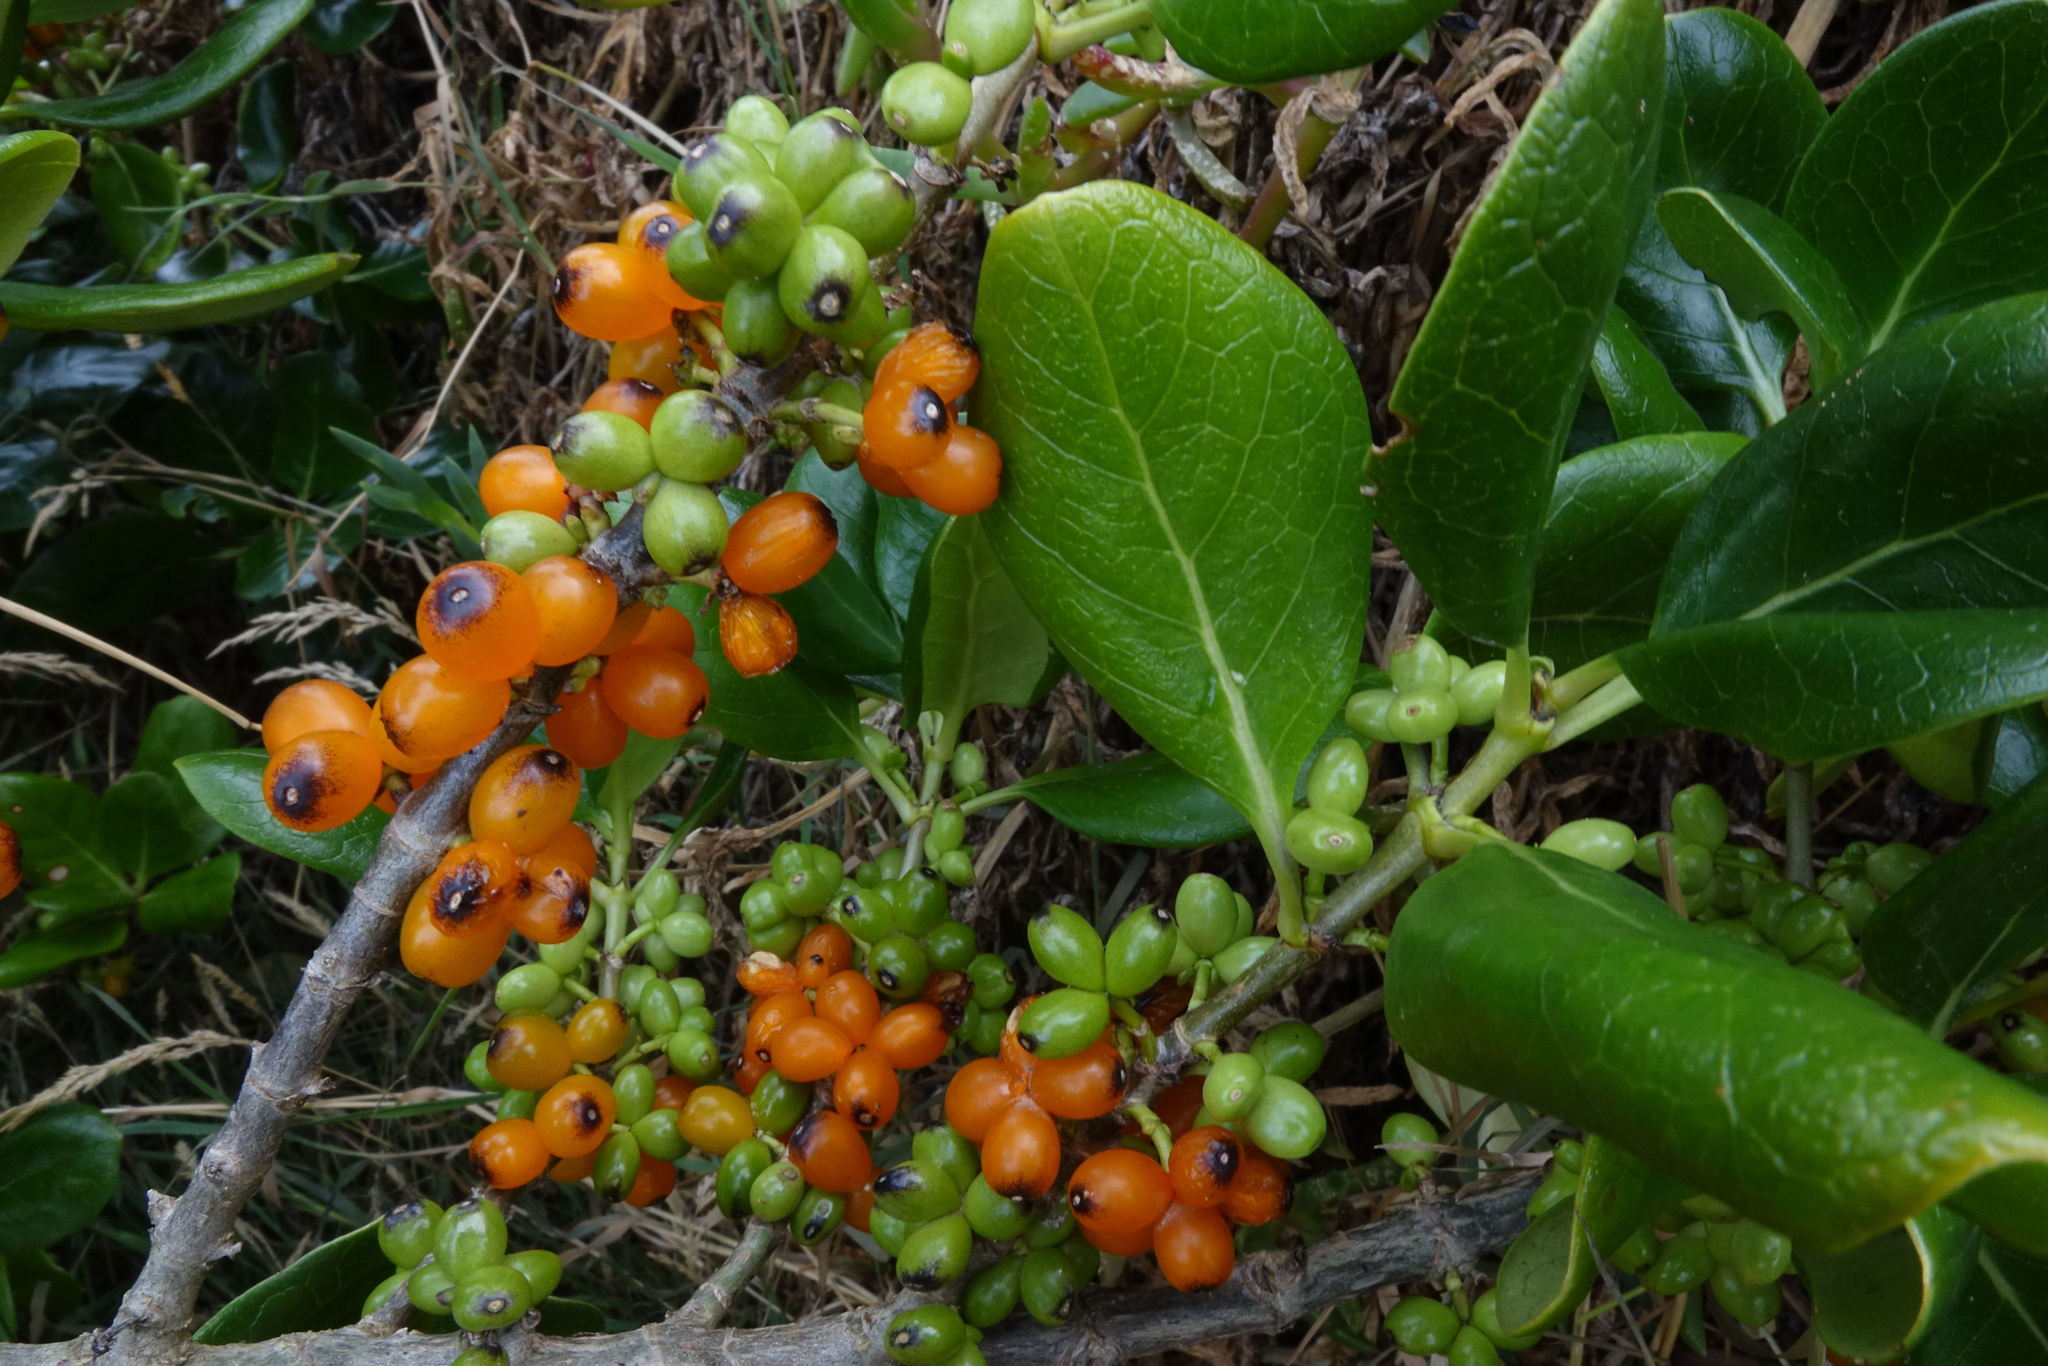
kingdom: Plantae
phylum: Tracheophyta
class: Magnoliopsida
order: Gentianales
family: Rubiaceae
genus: Coprosma
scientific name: Coprosma repens
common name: Tree bedstraw
